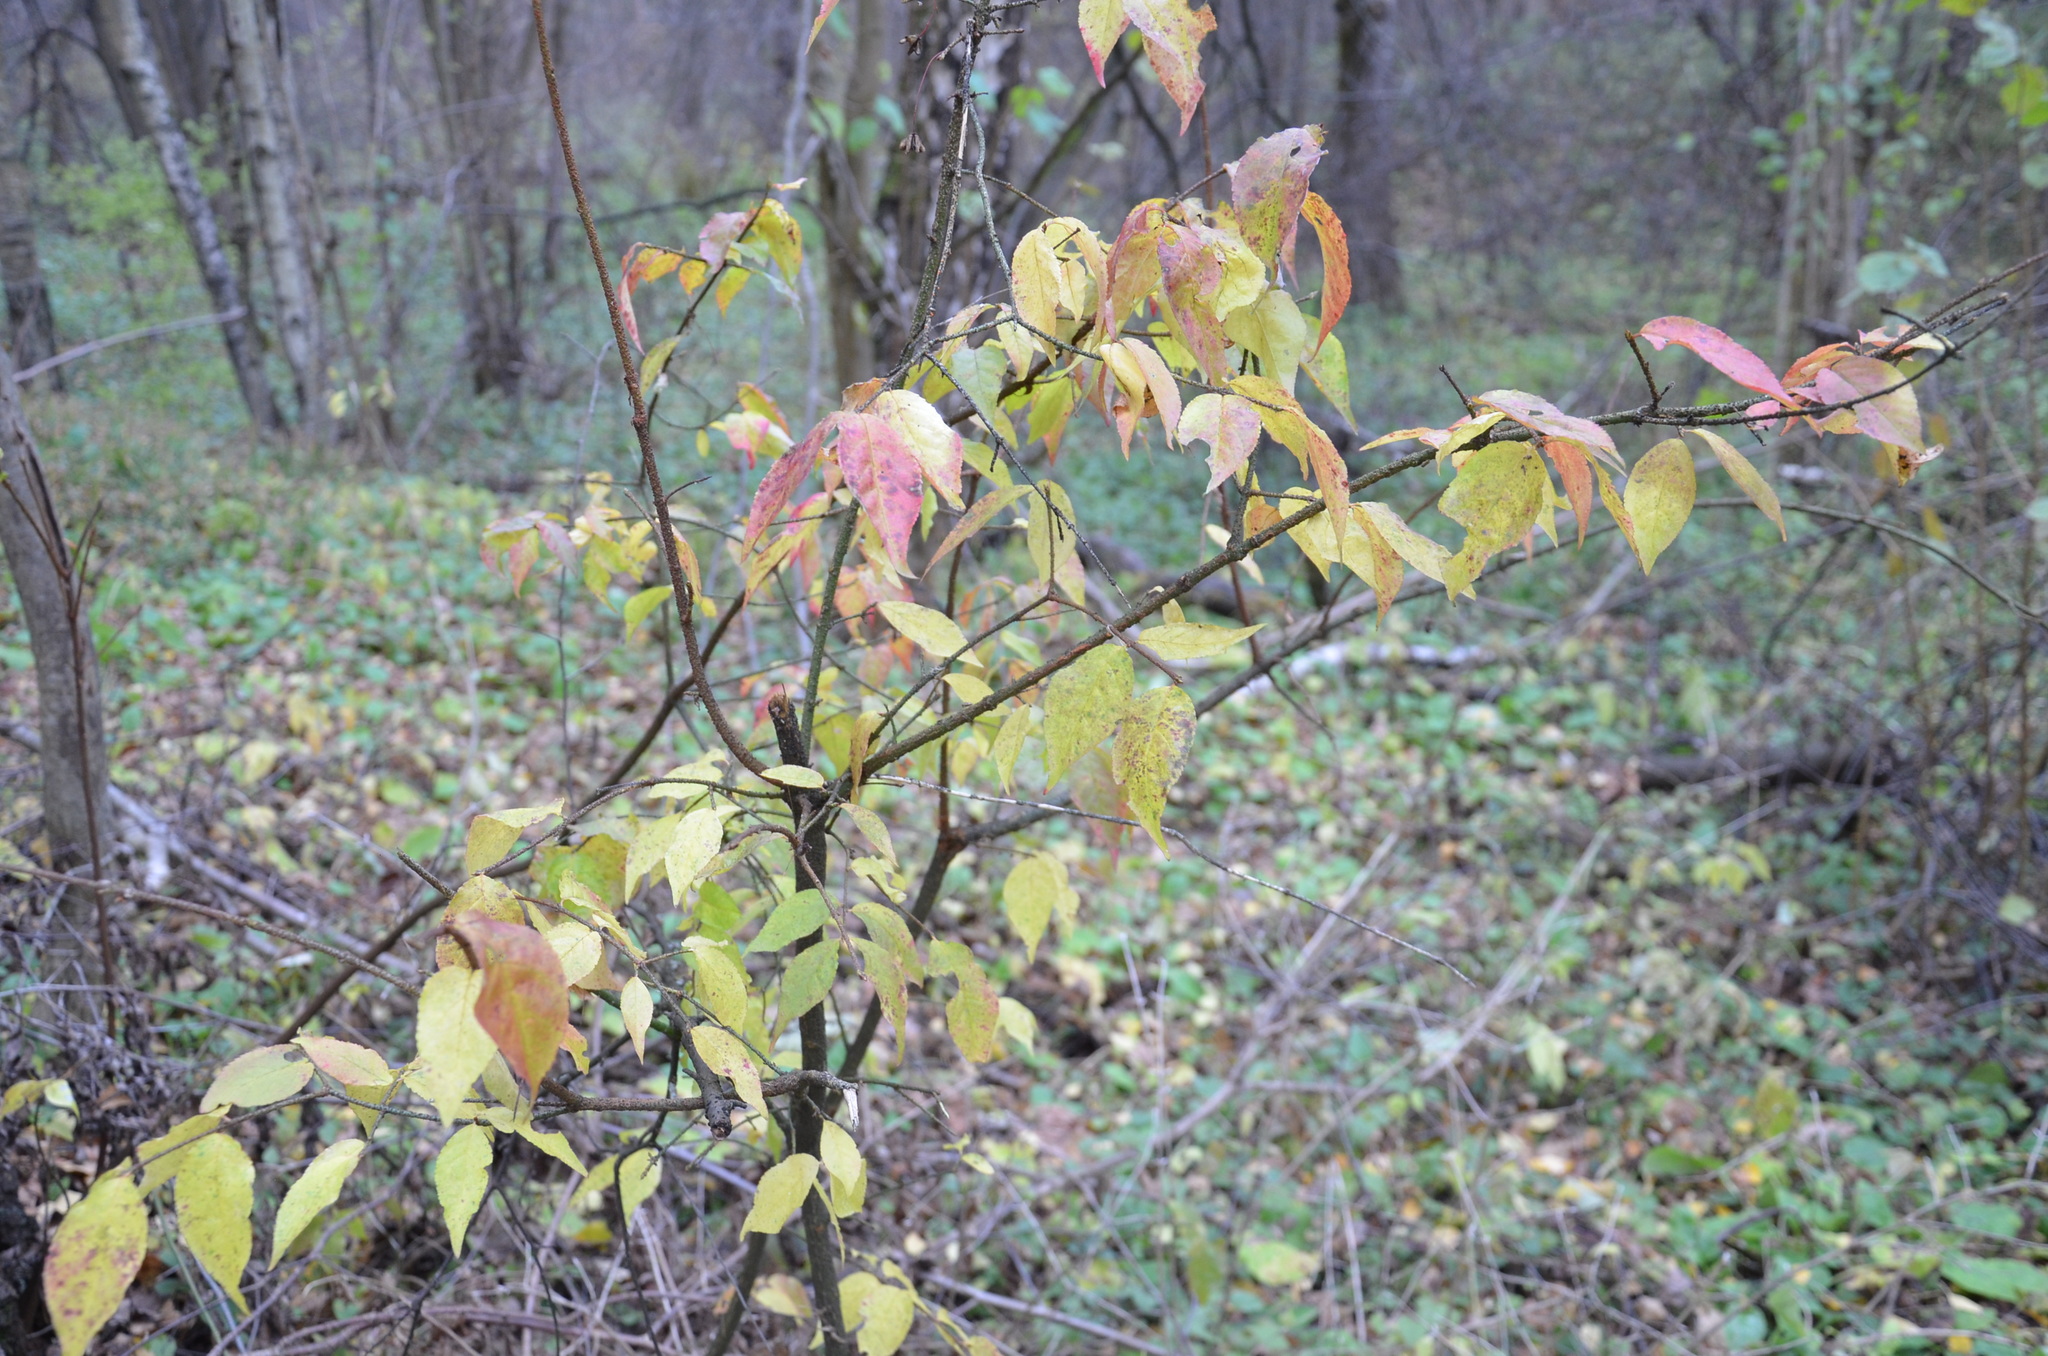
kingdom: Plantae
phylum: Tracheophyta
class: Magnoliopsida
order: Celastrales
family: Celastraceae
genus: Euonymus
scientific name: Euonymus verrucosus
